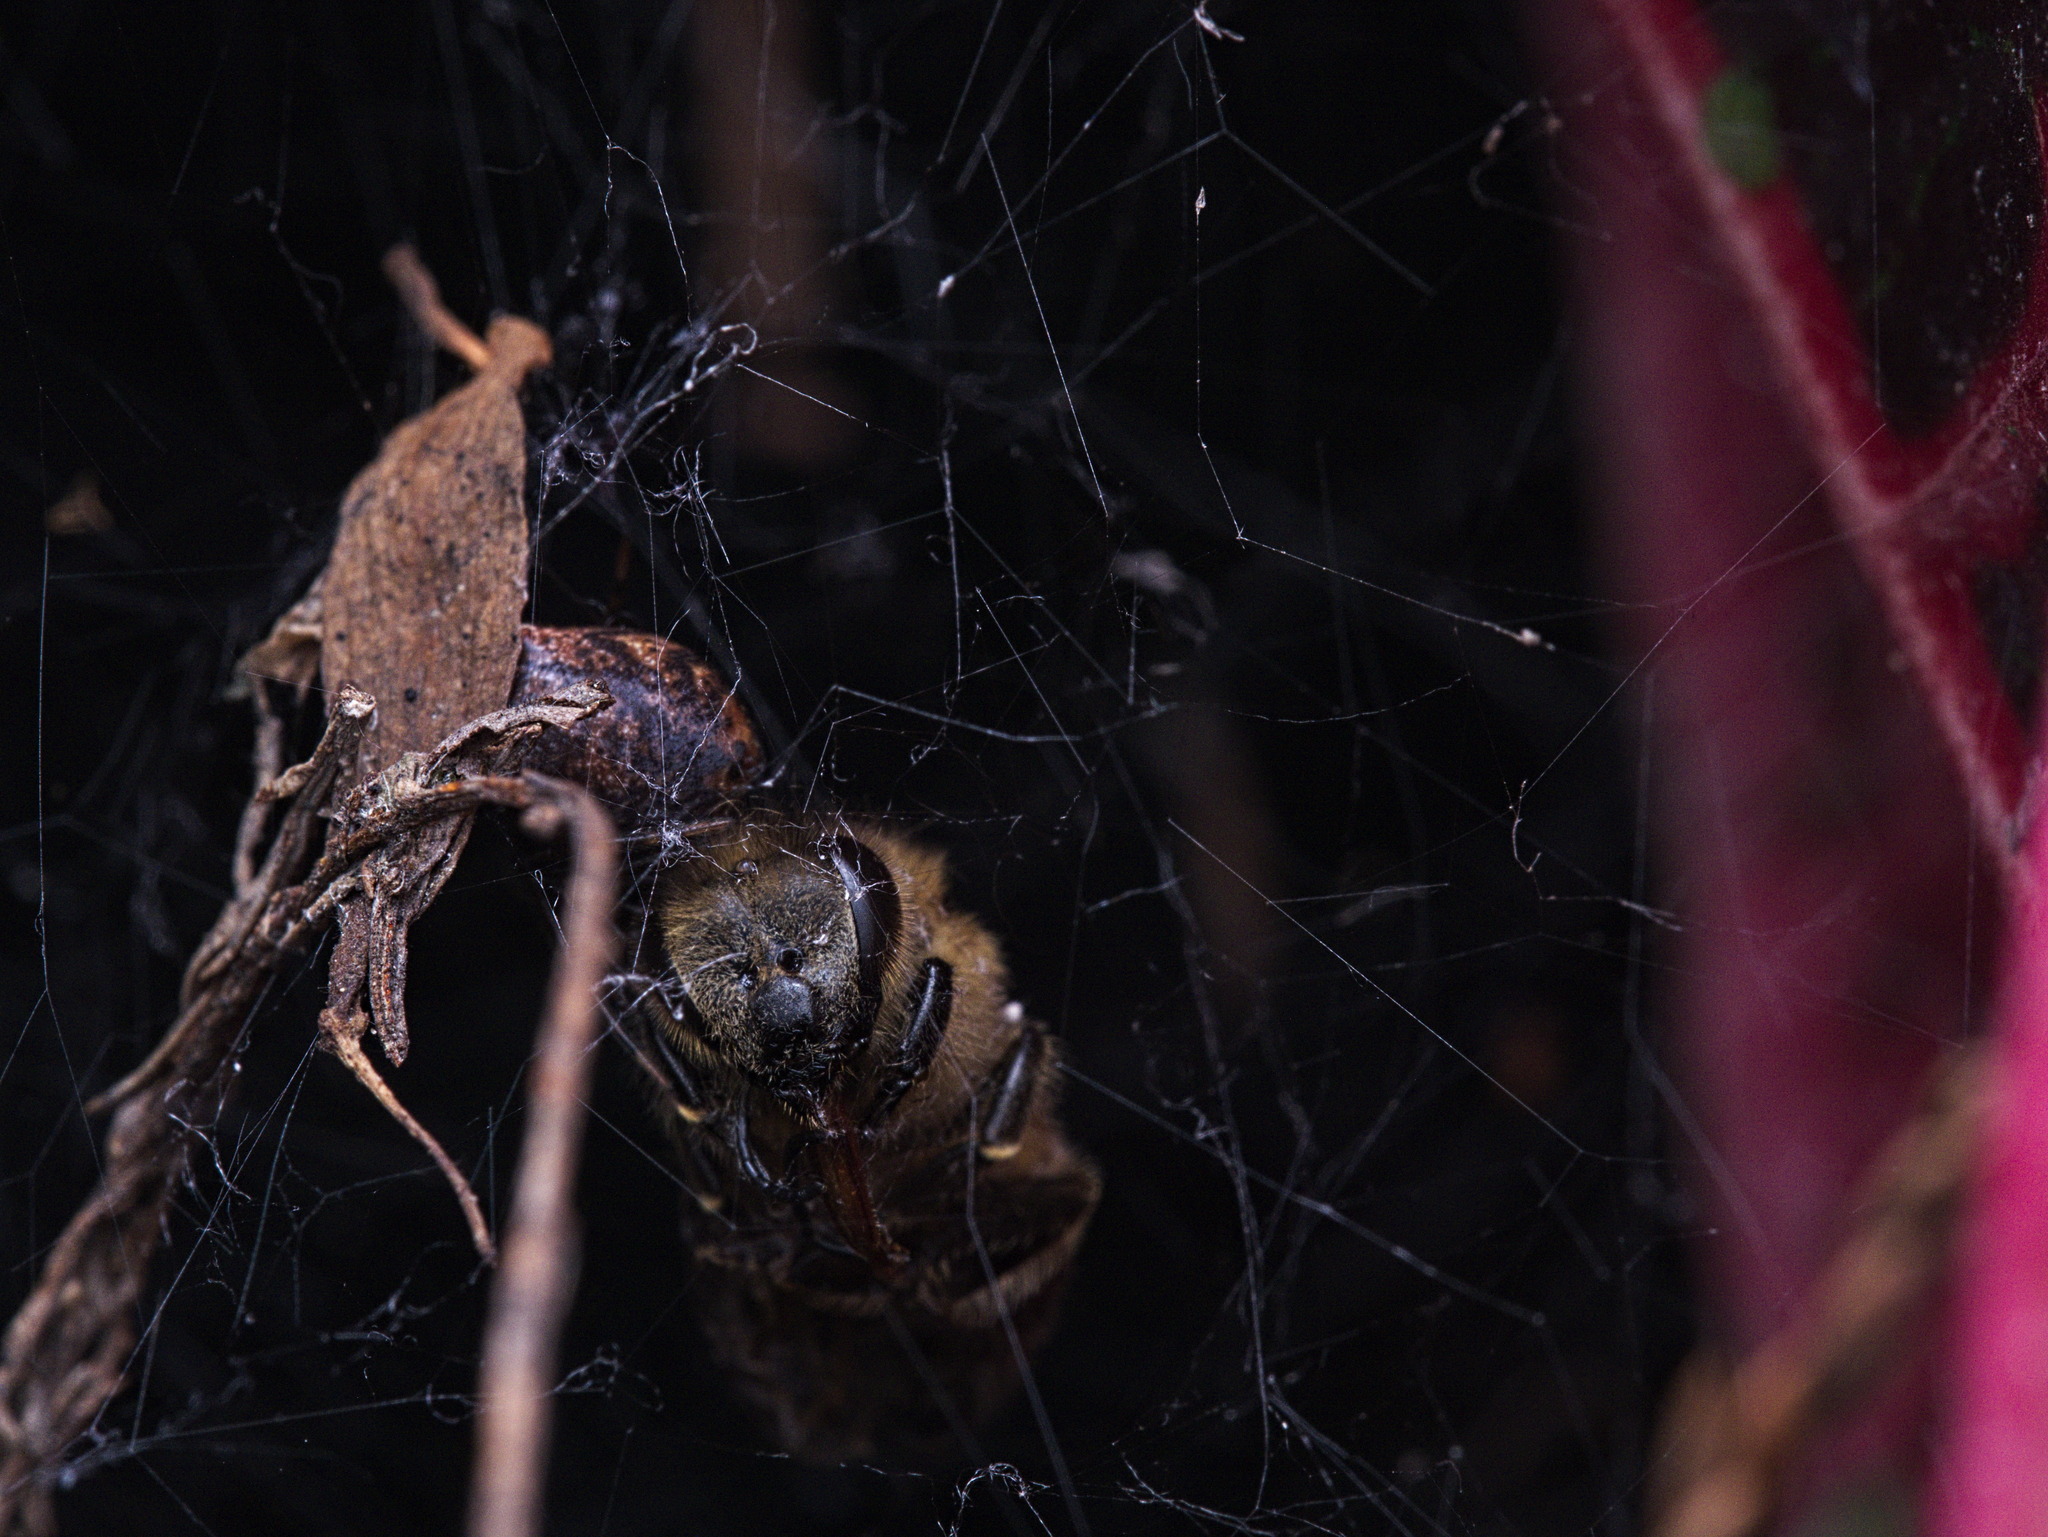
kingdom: Animalia
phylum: Arthropoda
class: Insecta
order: Hymenoptera
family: Apidae
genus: Apis
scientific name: Apis mellifera
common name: Honey bee
